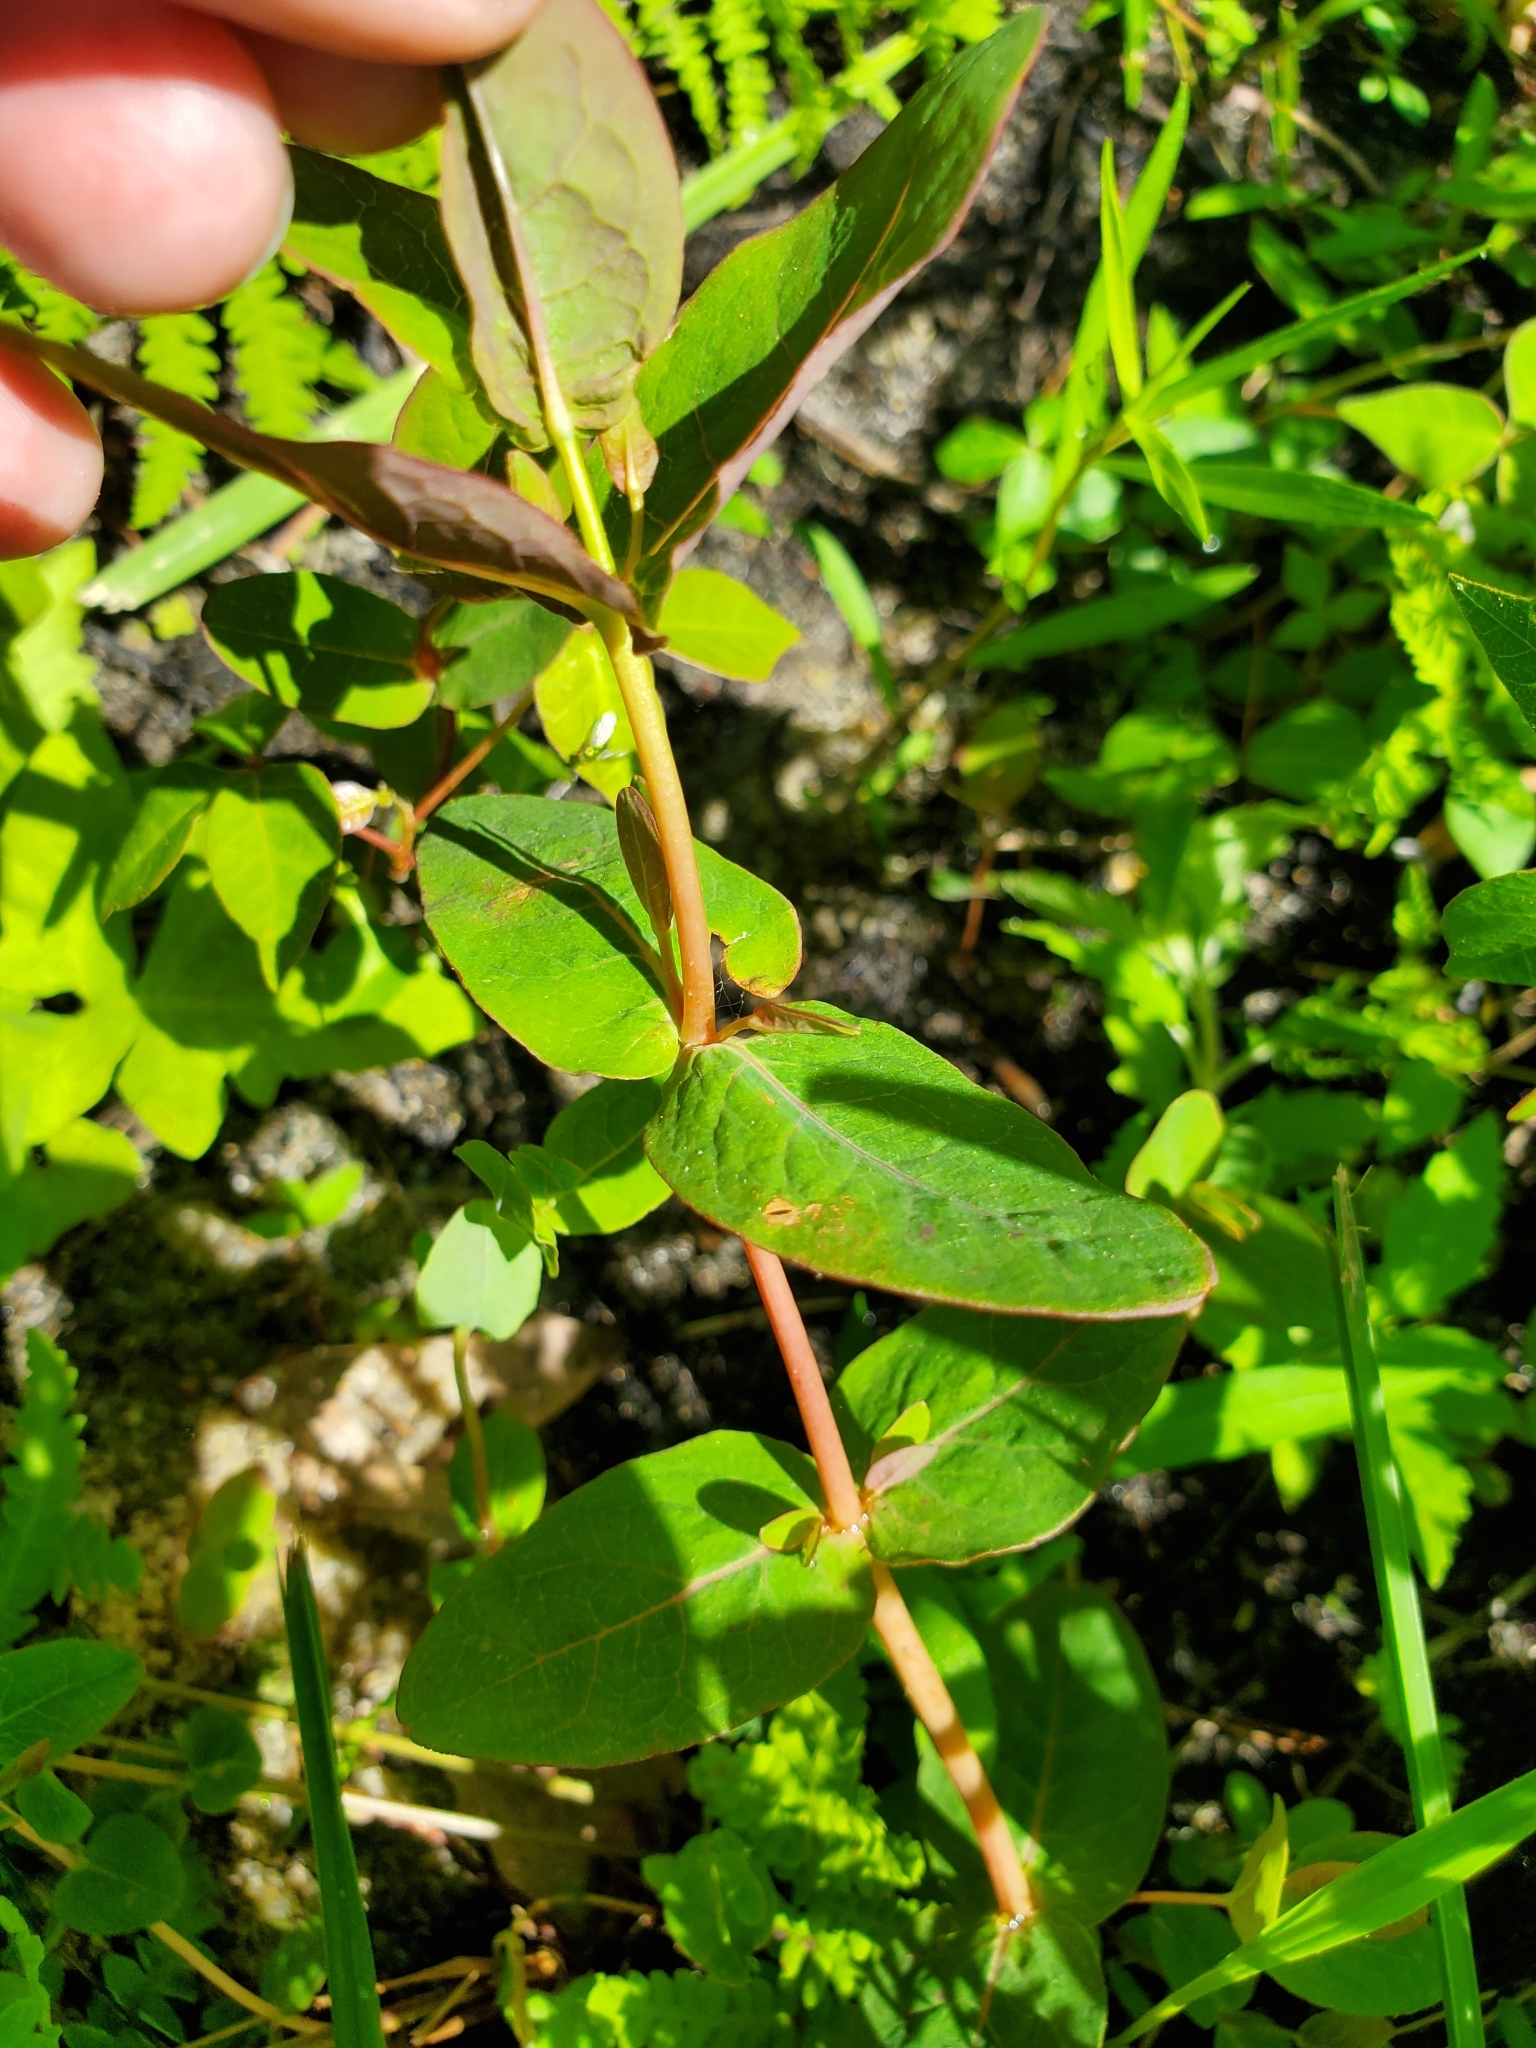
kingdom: Plantae
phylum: Tracheophyta
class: Magnoliopsida
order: Malpighiales
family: Hypericaceae
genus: Triadenum
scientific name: Triadenum virginicum
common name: Marsh st. john's-wort
